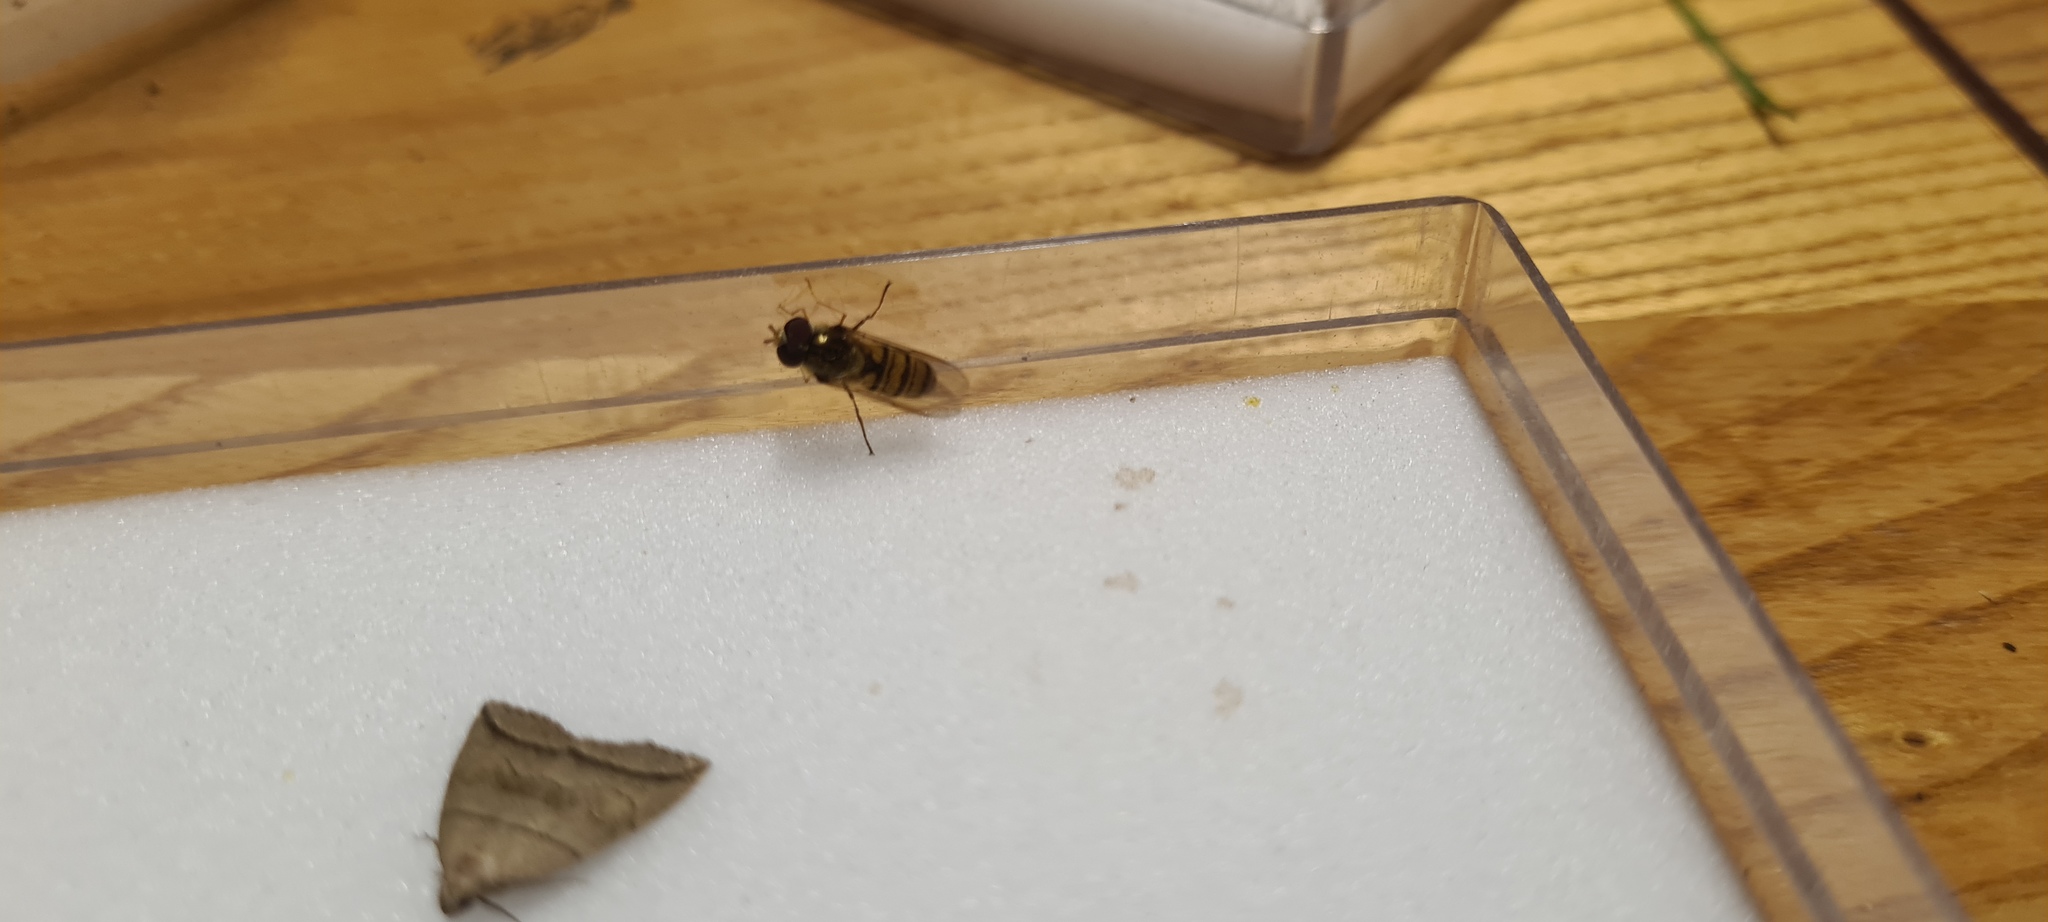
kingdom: Animalia
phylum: Arthropoda
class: Insecta
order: Diptera
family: Syrphidae
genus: Episyrphus
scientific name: Episyrphus balteatus
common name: Marmalade hoverfly
